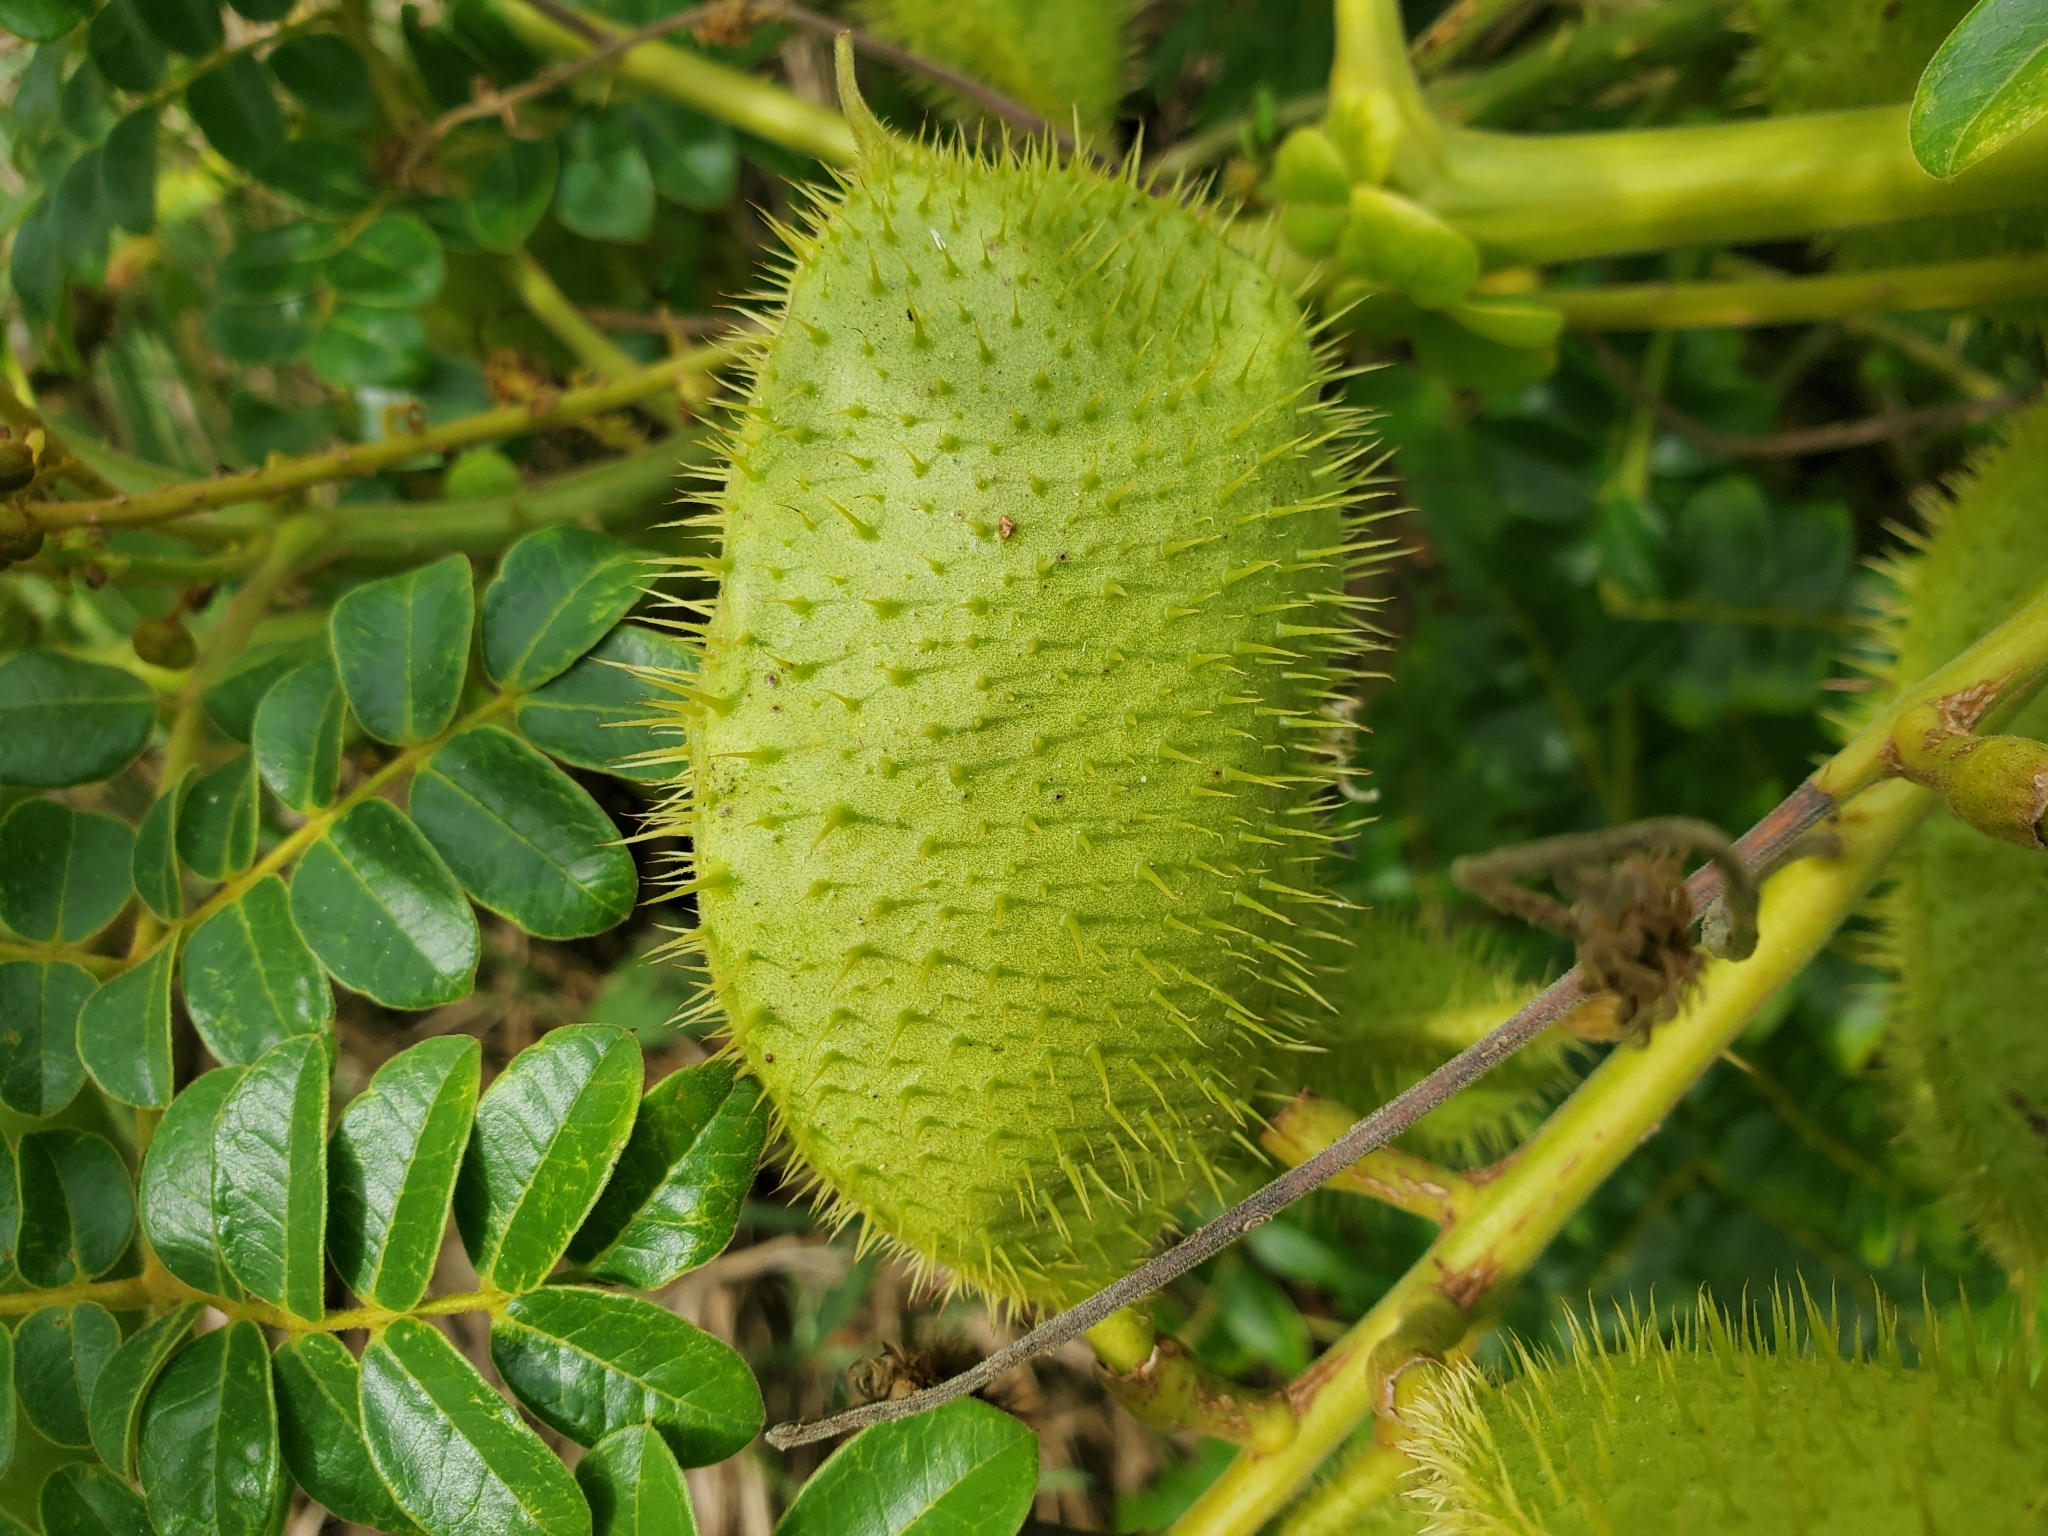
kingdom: Plantae
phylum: Tracheophyta
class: Magnoliopsida
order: Fabales
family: Fabaceae
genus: Guilandina
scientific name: Guilandina bonduc
